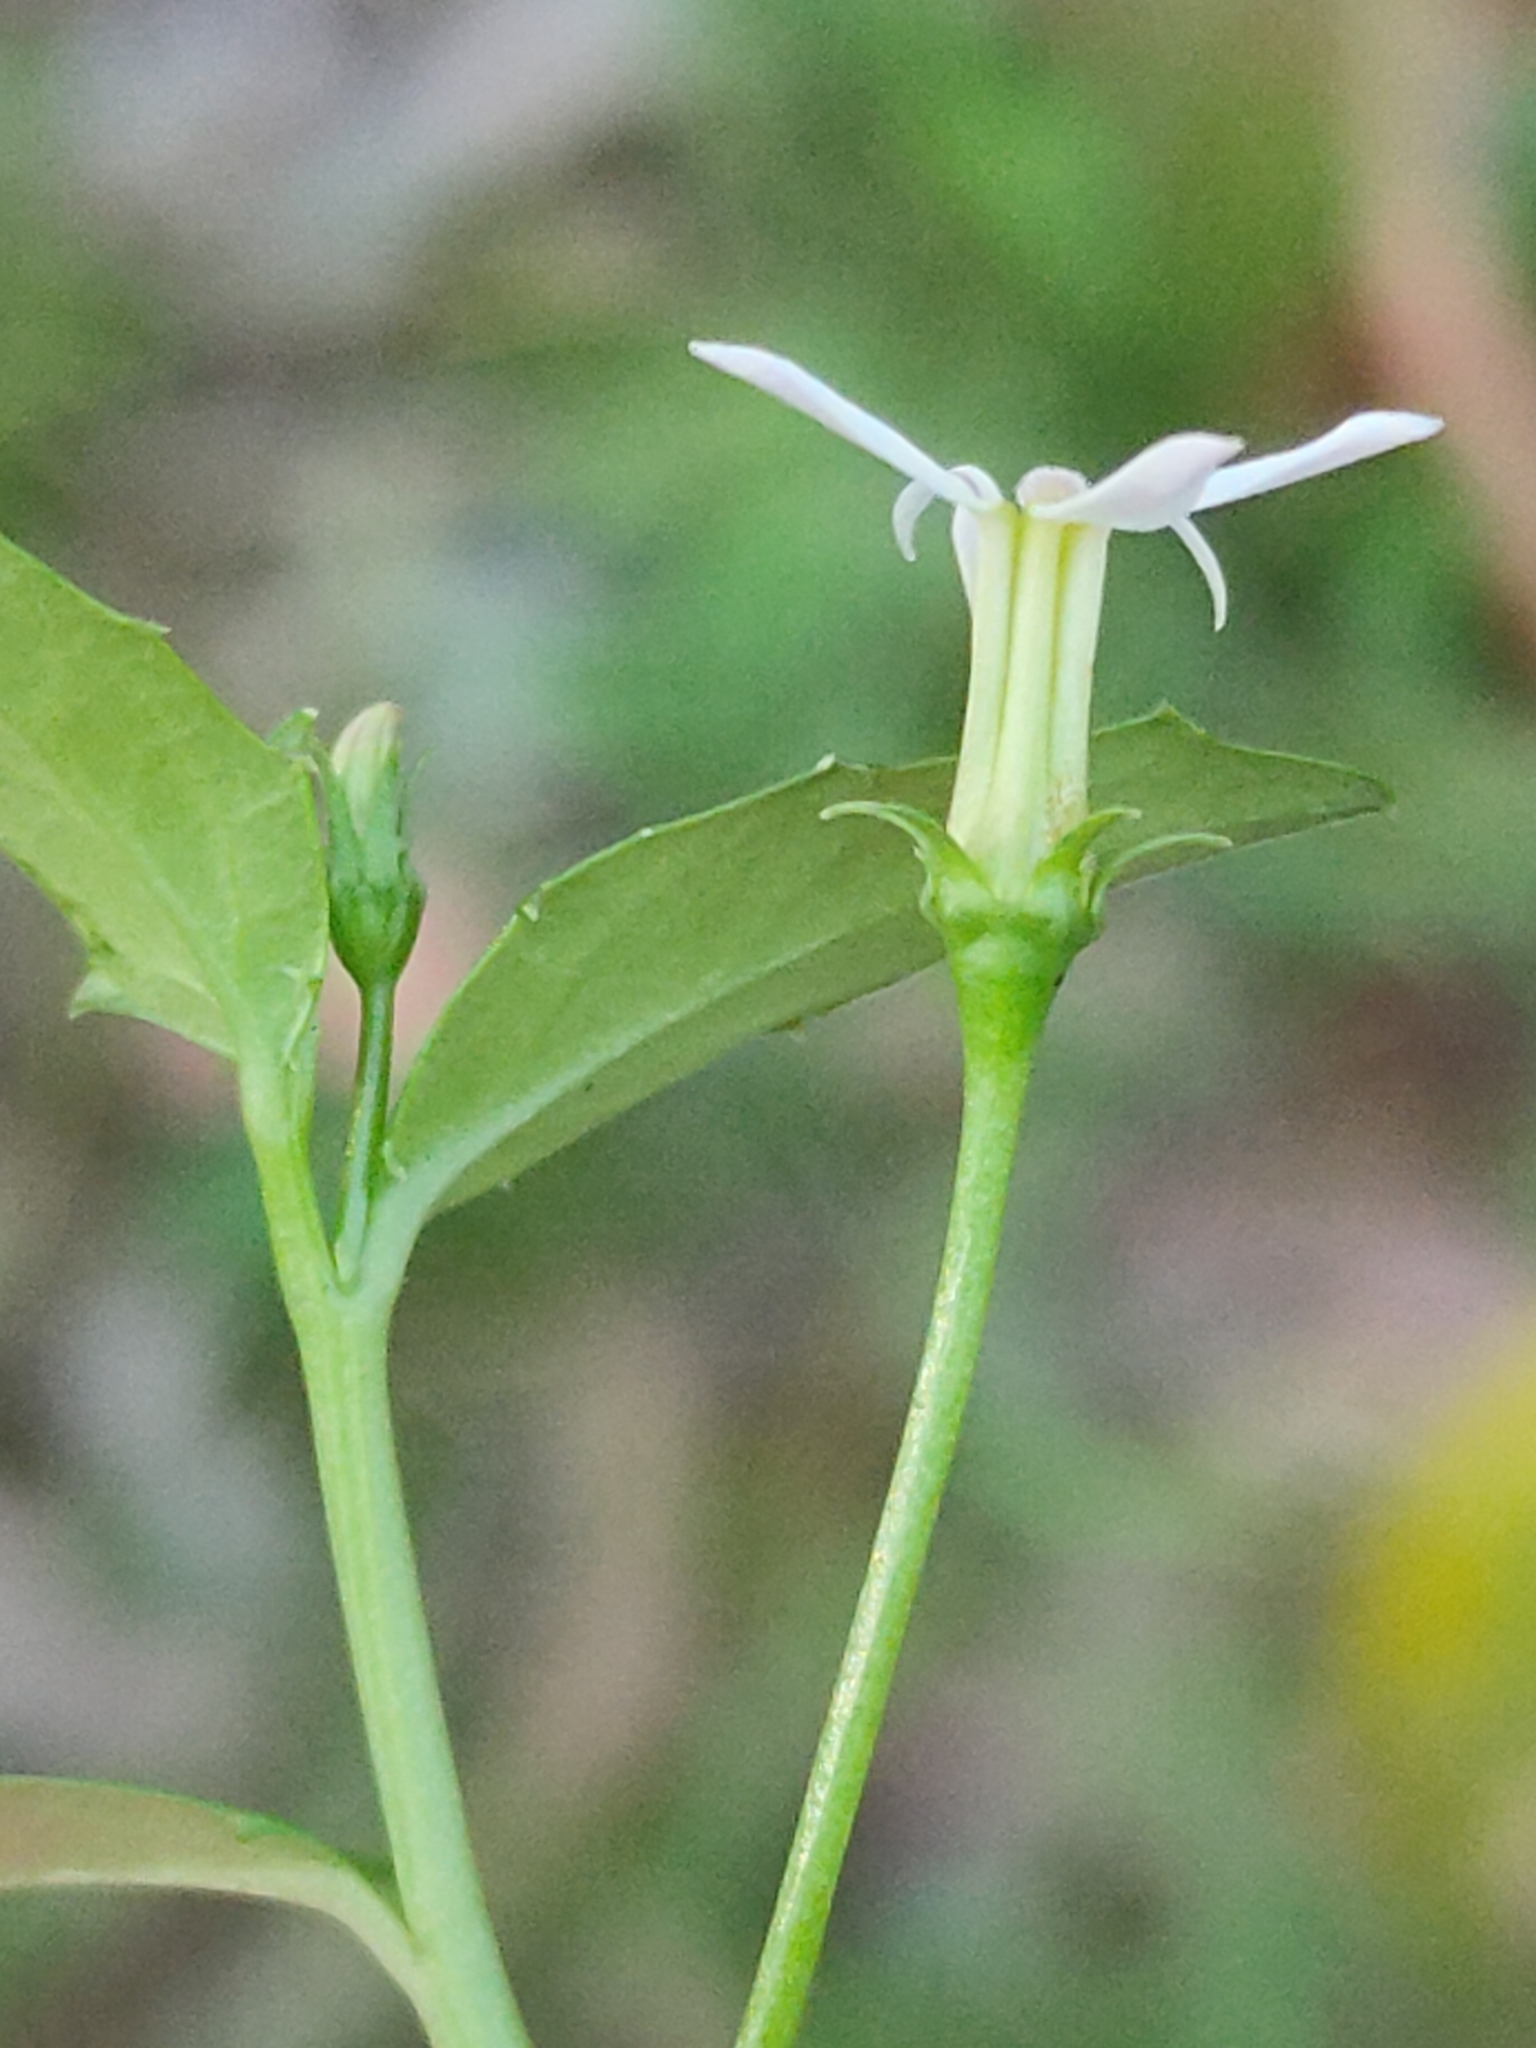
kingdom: Plantae
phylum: Tracheophyta
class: Magnoliopsida
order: Asterales
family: Campanulaceae
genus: Lobelia
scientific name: Lobelia purpurascens
